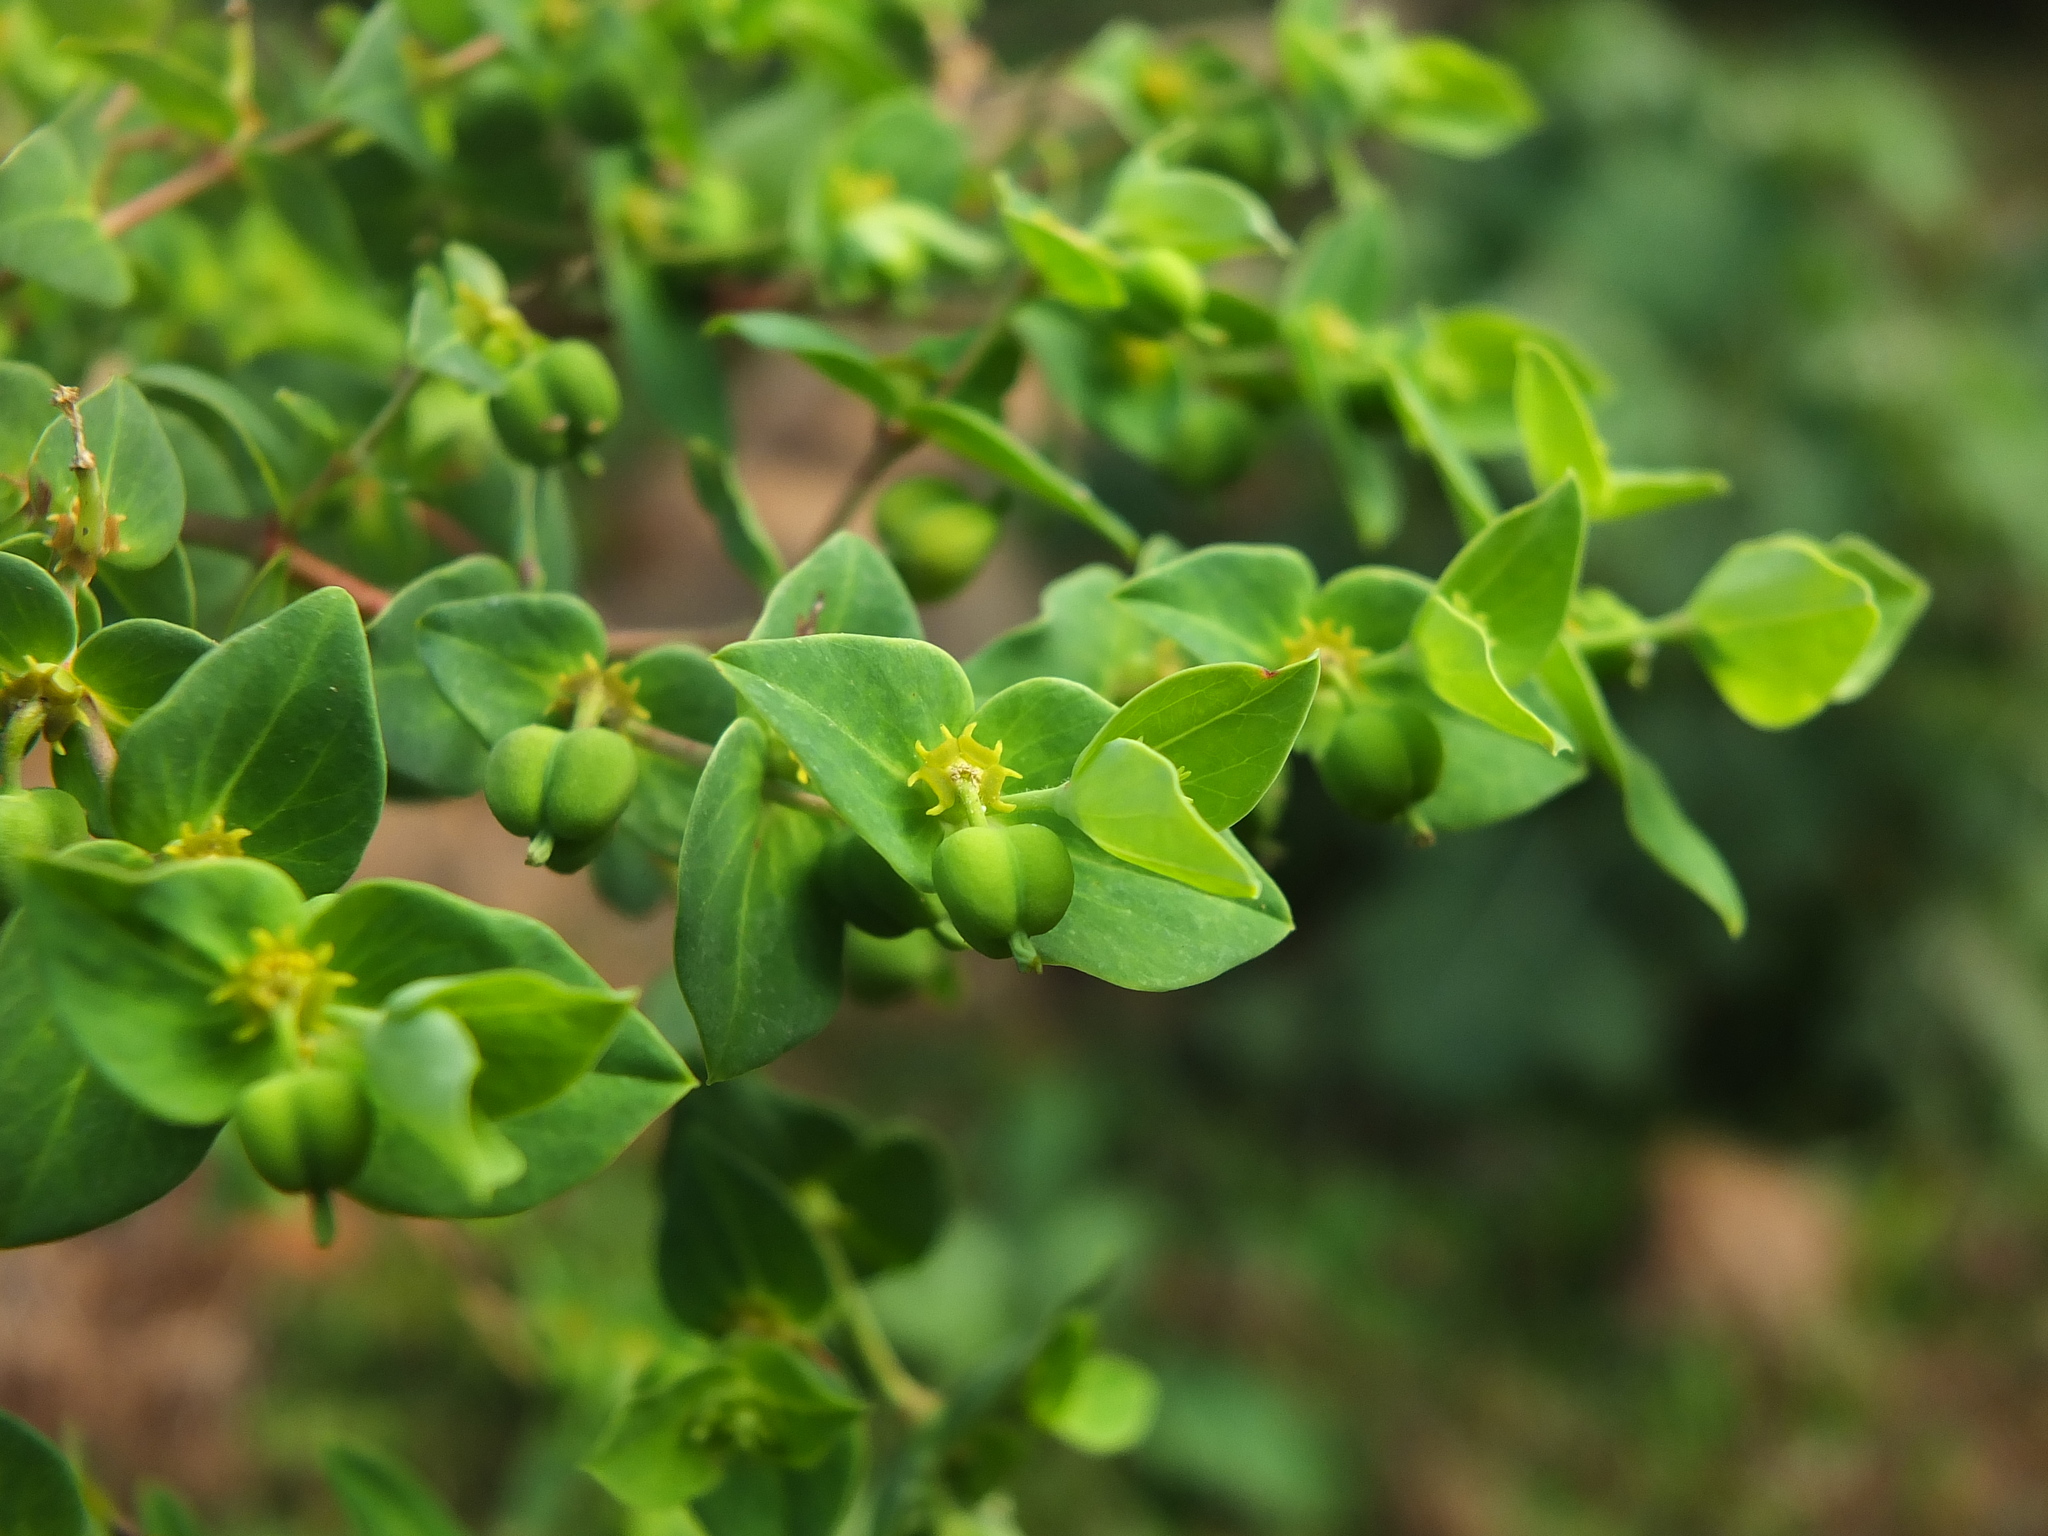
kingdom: Plantae
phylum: Tracheophyta
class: Magnoliopsida
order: Malpighiales
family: Euphorbiaceae
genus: Euphorbia
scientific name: Euphorbia rothiana
